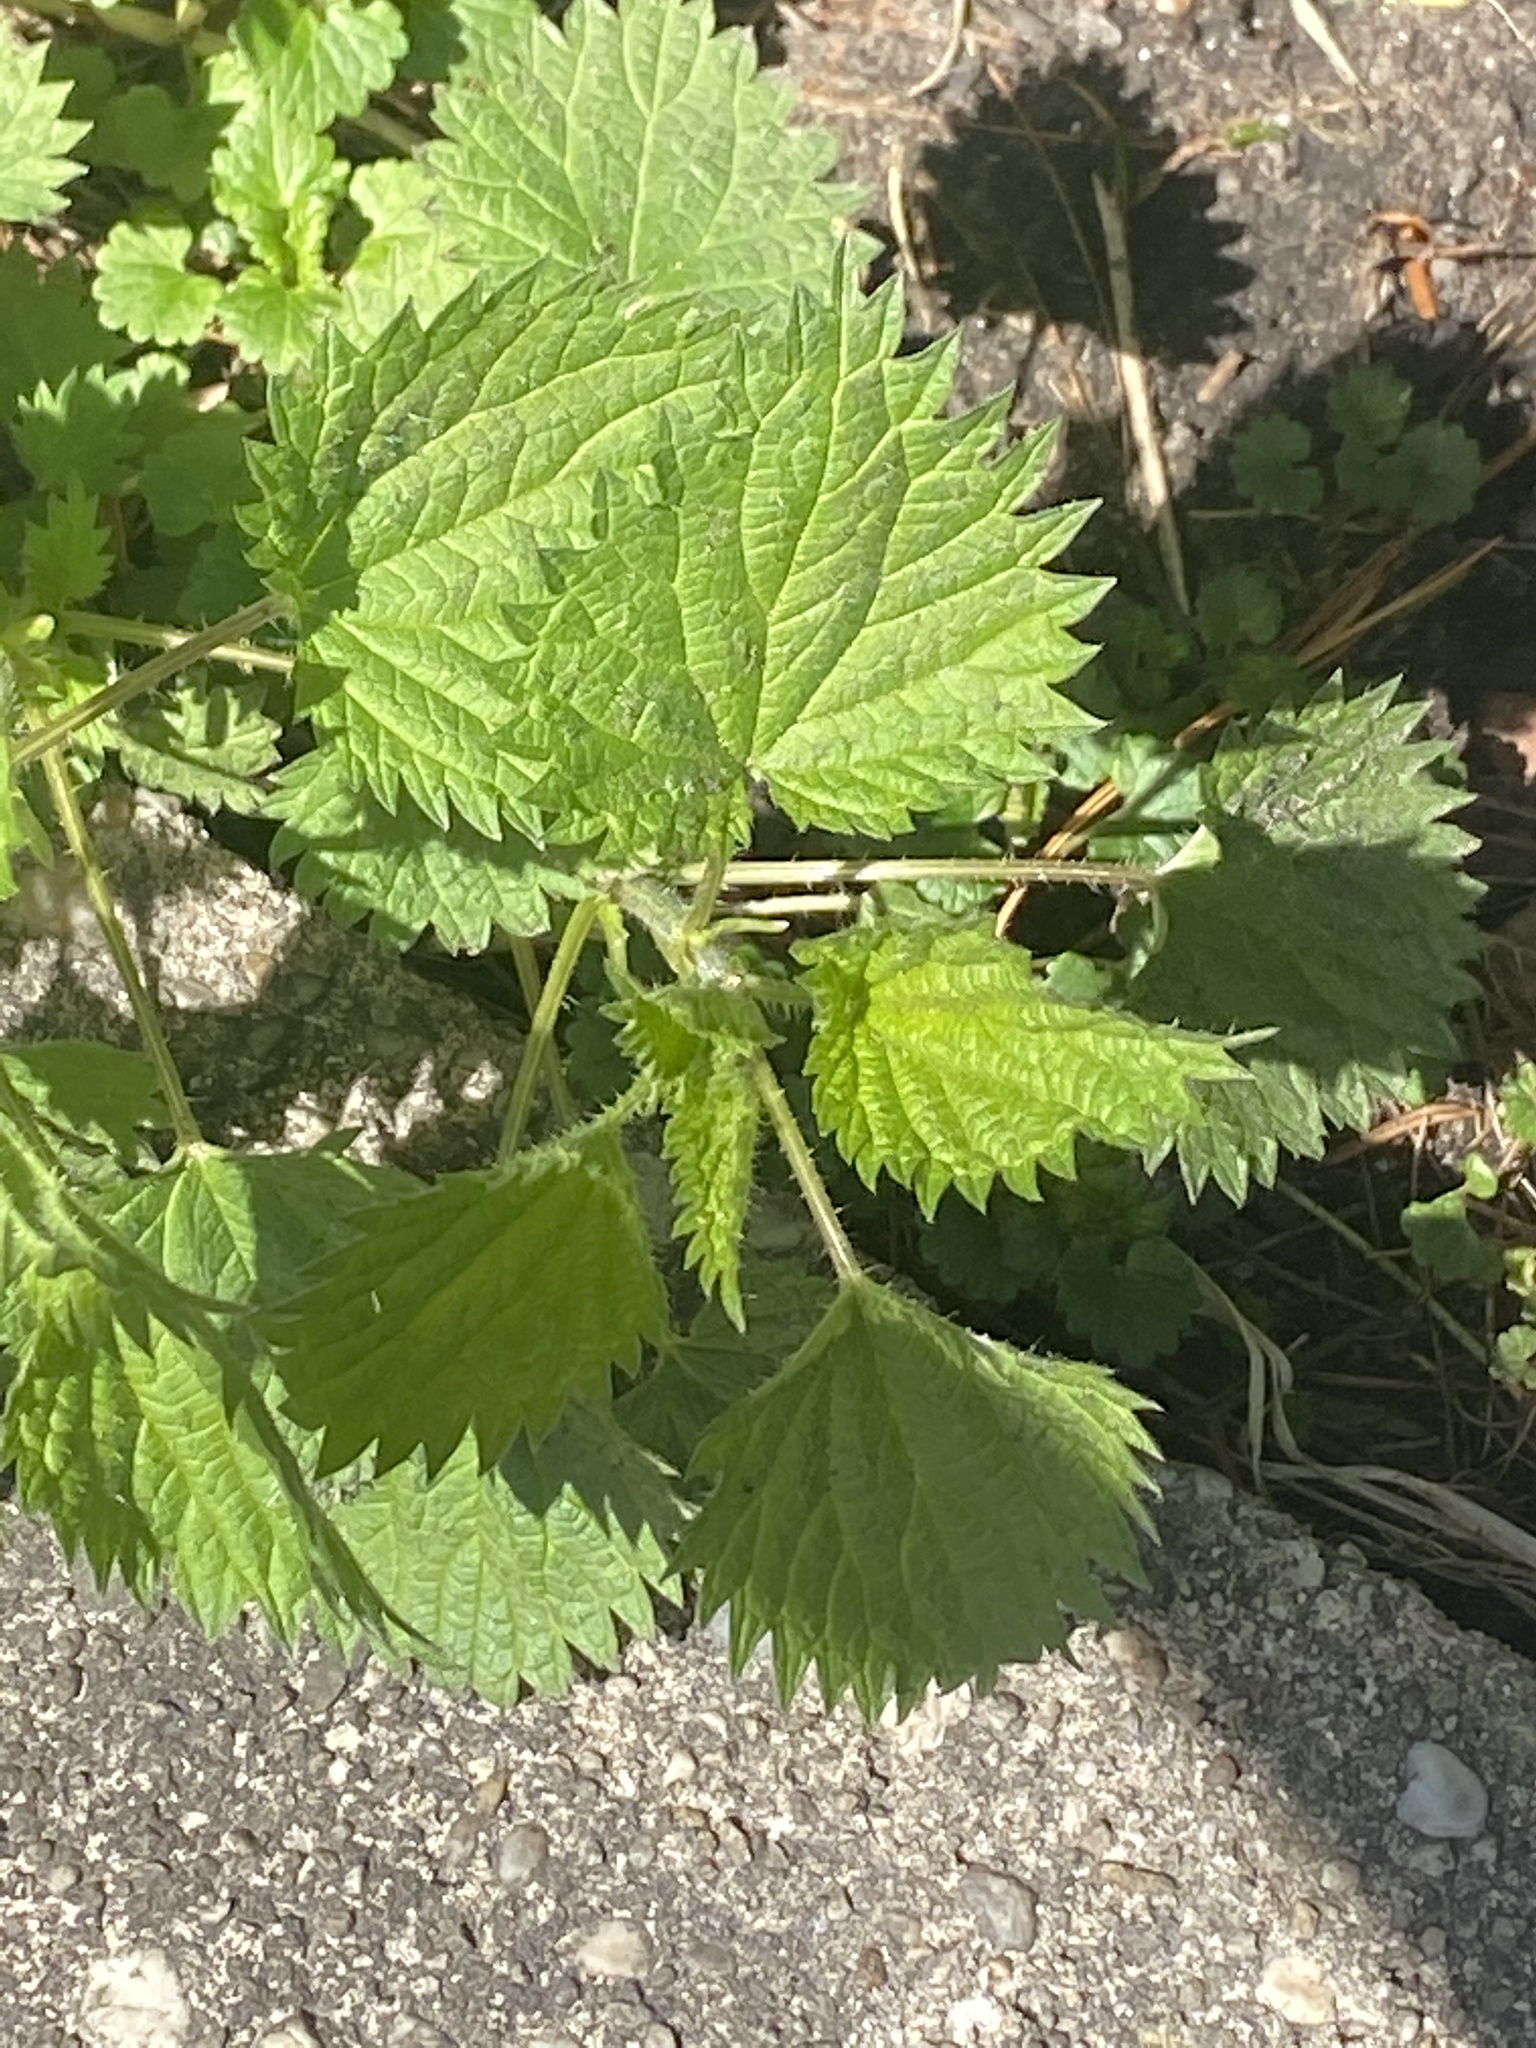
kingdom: Plantae
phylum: Tracheophyta
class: Magnoliopsida
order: Rosales
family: Urticaceae
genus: Urtica
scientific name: Urtica dioica
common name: Common nettle
